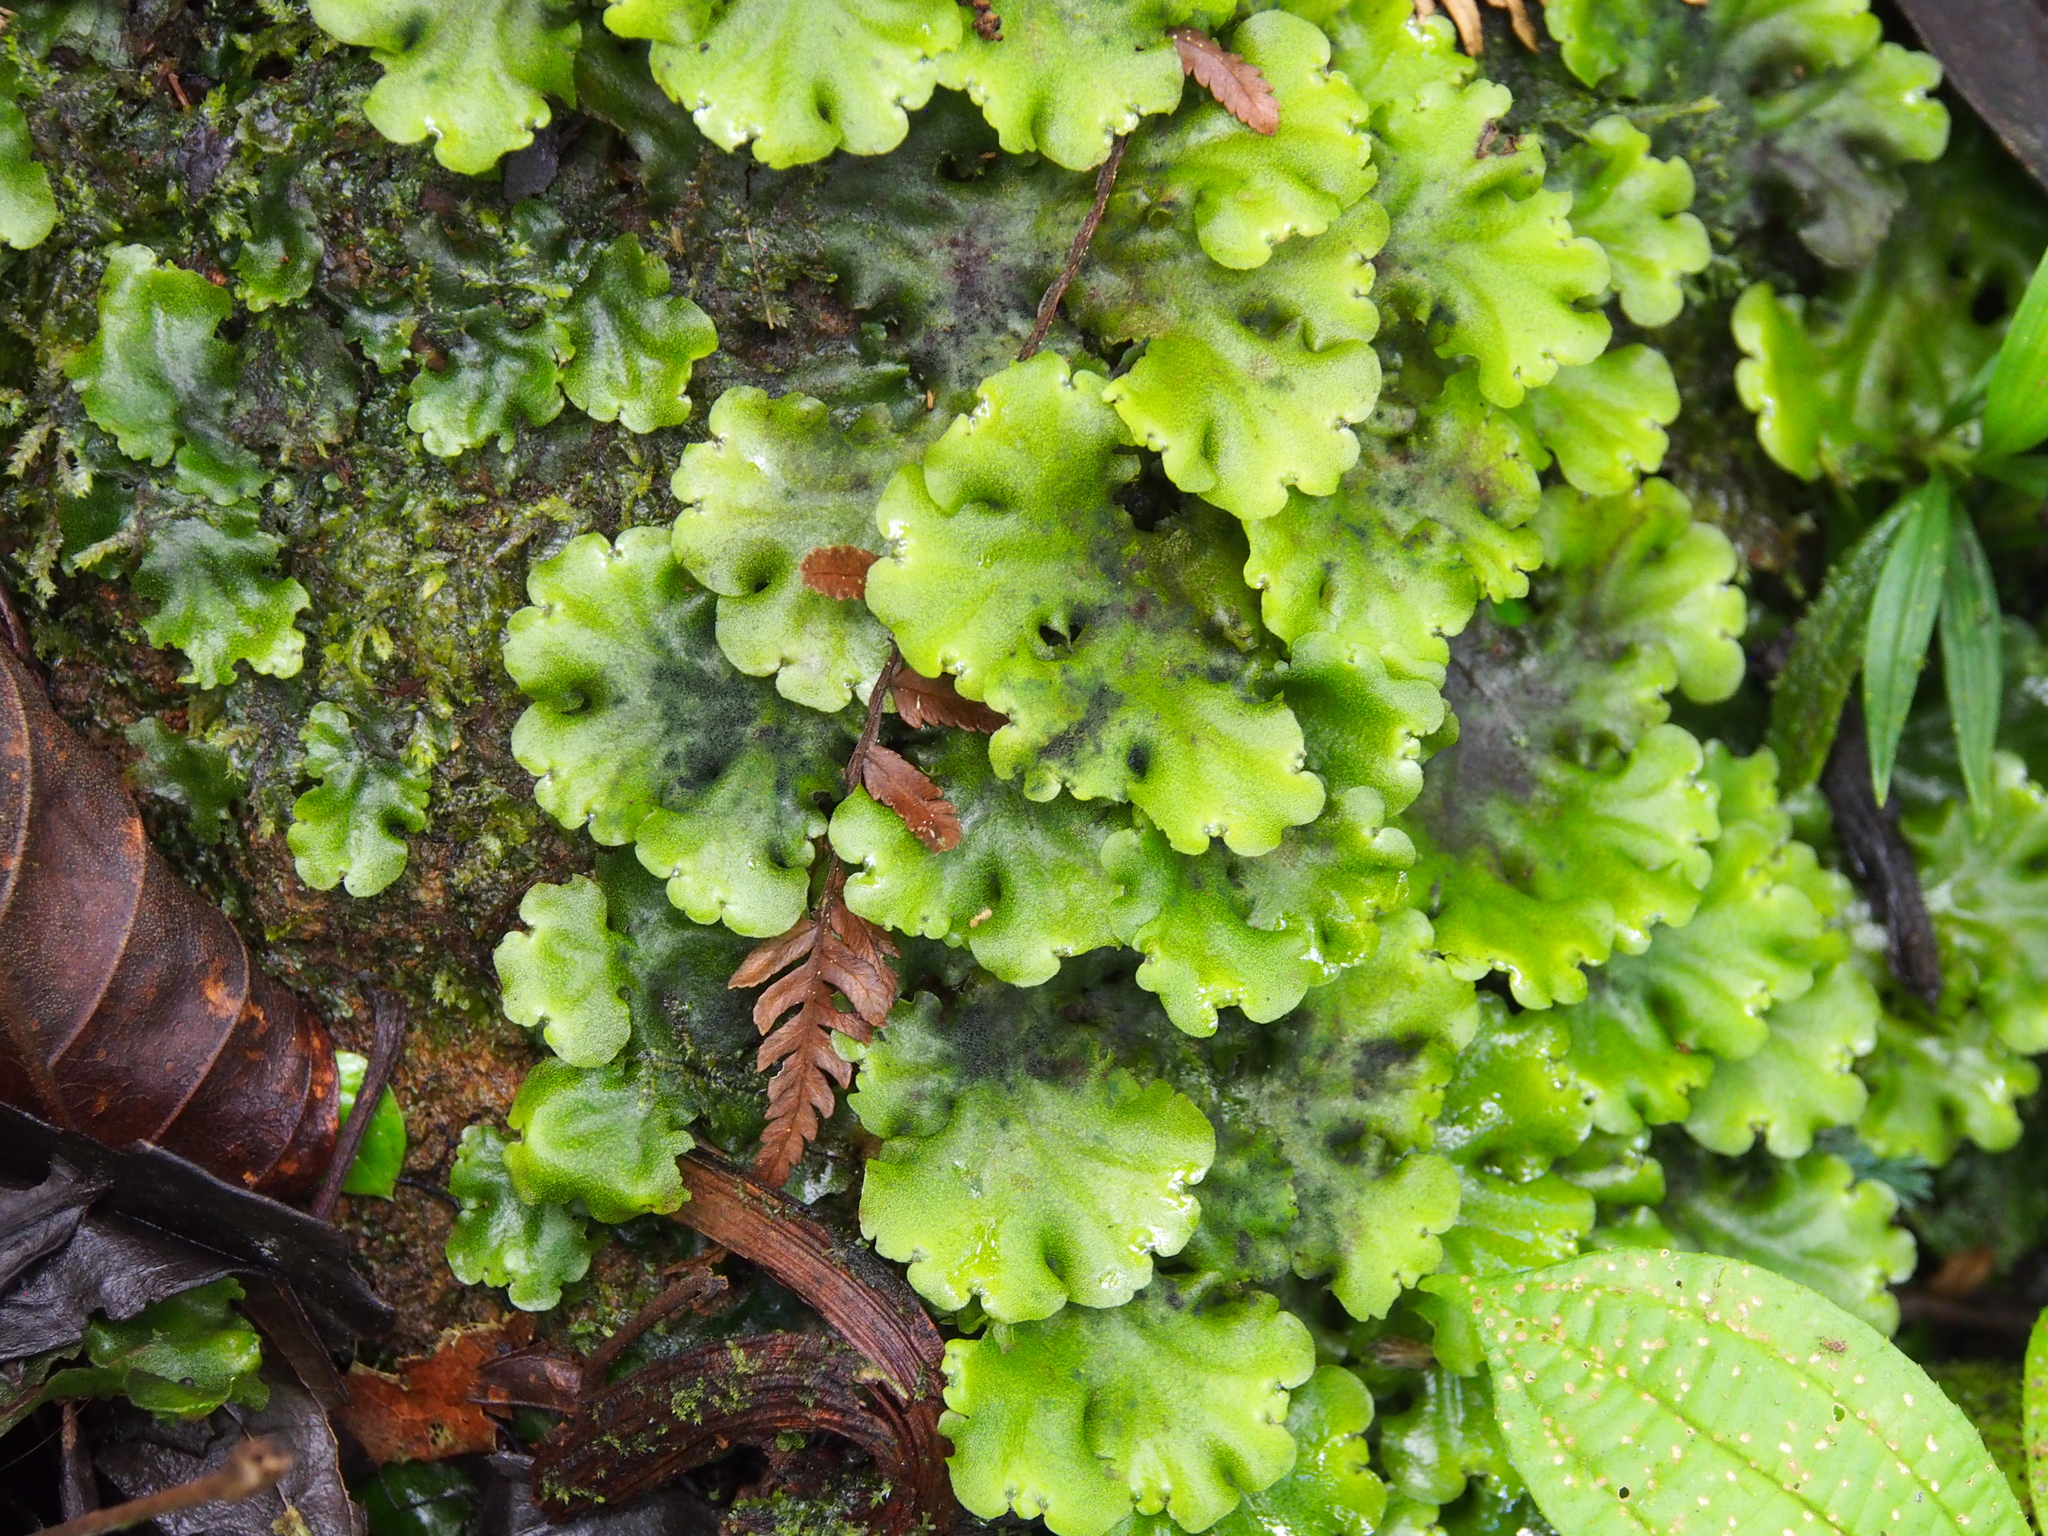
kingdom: Plantae
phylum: Marchantiophyta
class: Marchantiopsida
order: Marchantiales
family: Monocleaceae
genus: Monoclea
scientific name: Monoclea gottschei
